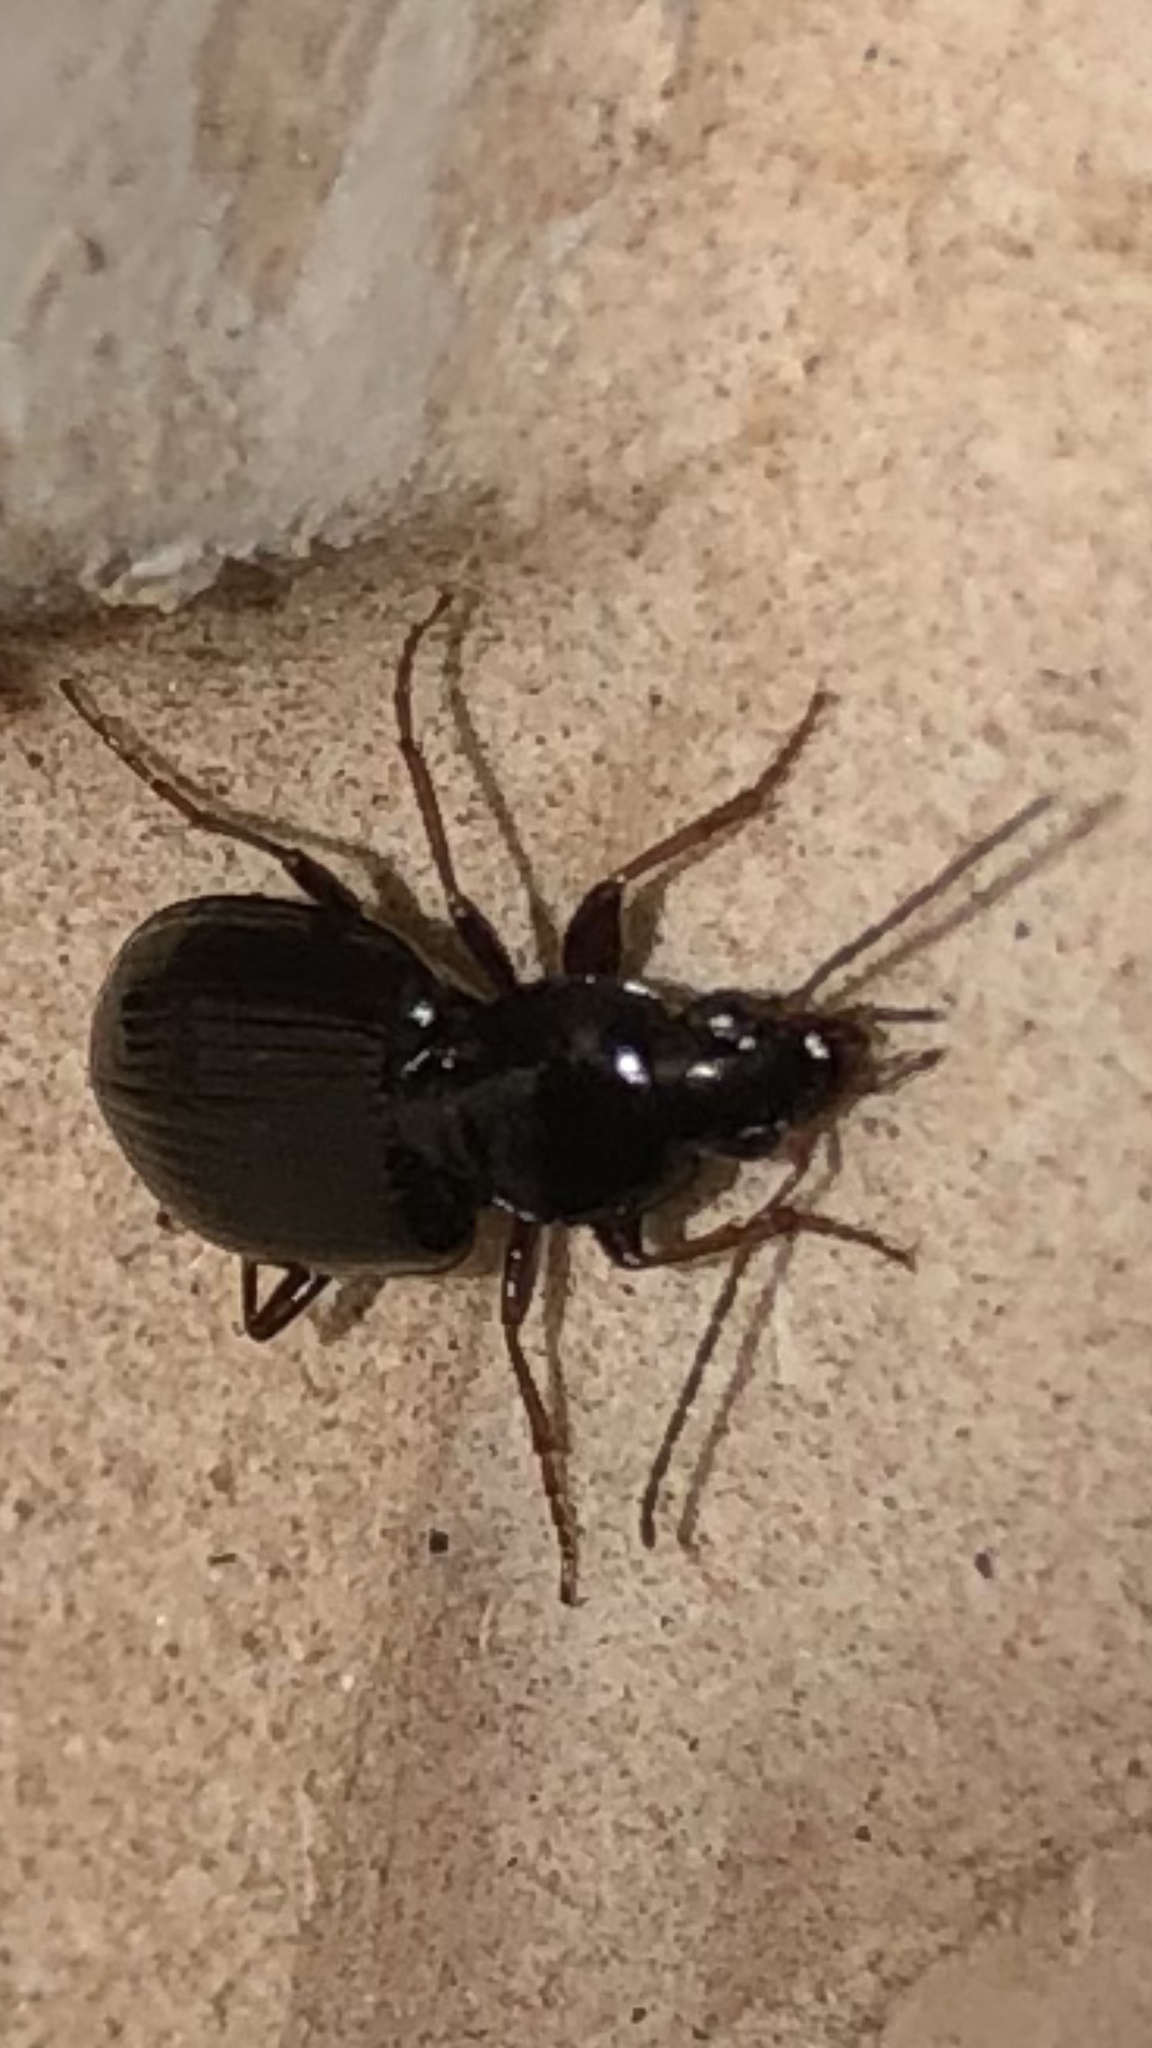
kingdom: Animalia
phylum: Arthropoda
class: Insecta
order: Coleoptera
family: Carabidae
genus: Agonum
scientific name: Agonum punctiforme
